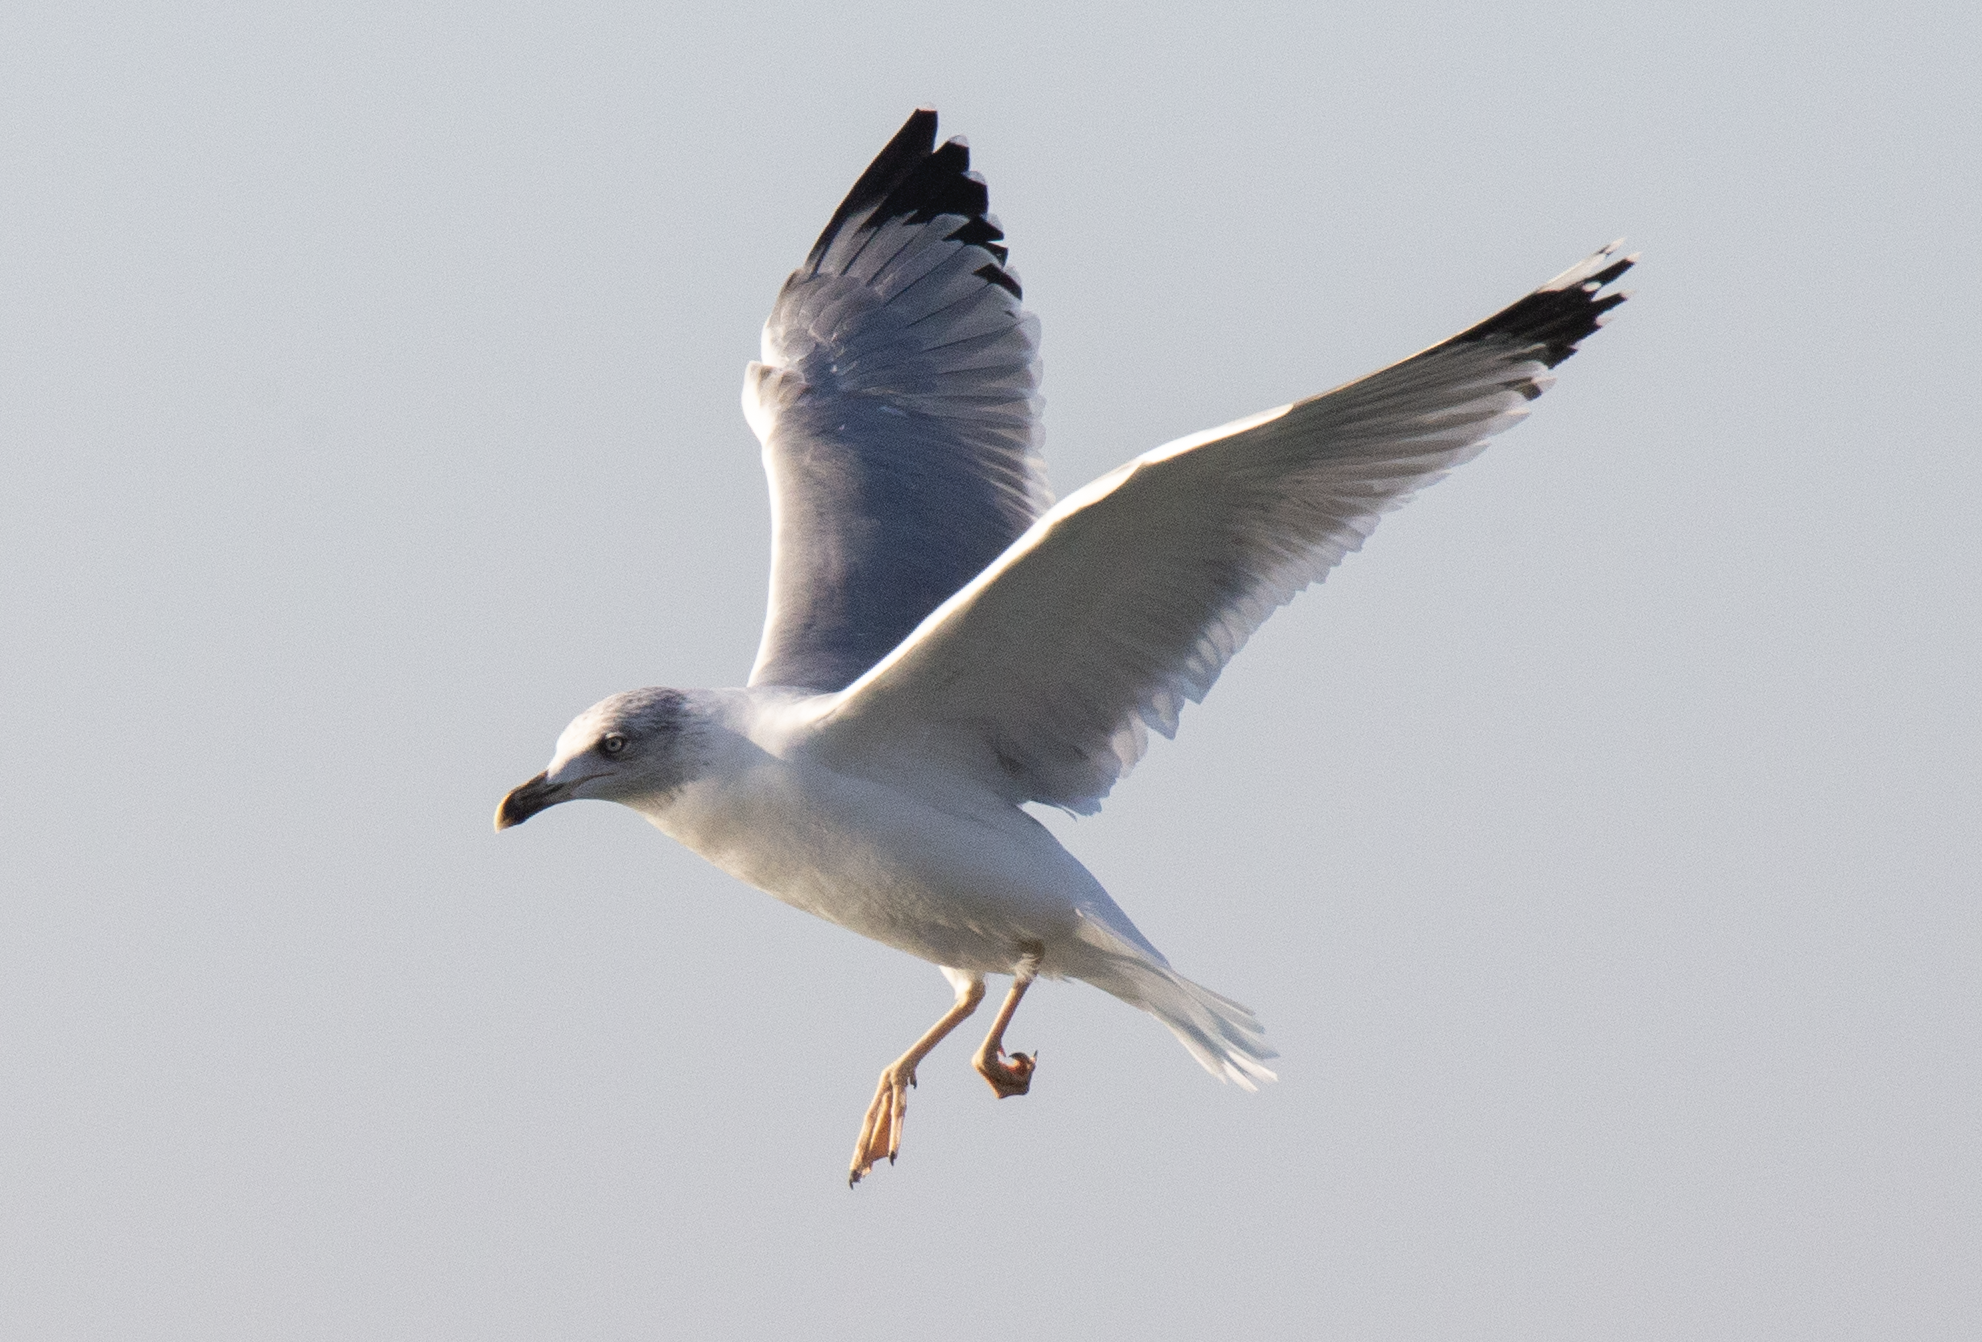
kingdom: Animalia
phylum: Chordata
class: Aves
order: Charadriiformes
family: Laridae
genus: Larus
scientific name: Larus michahellis
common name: Yellow-legged gull
